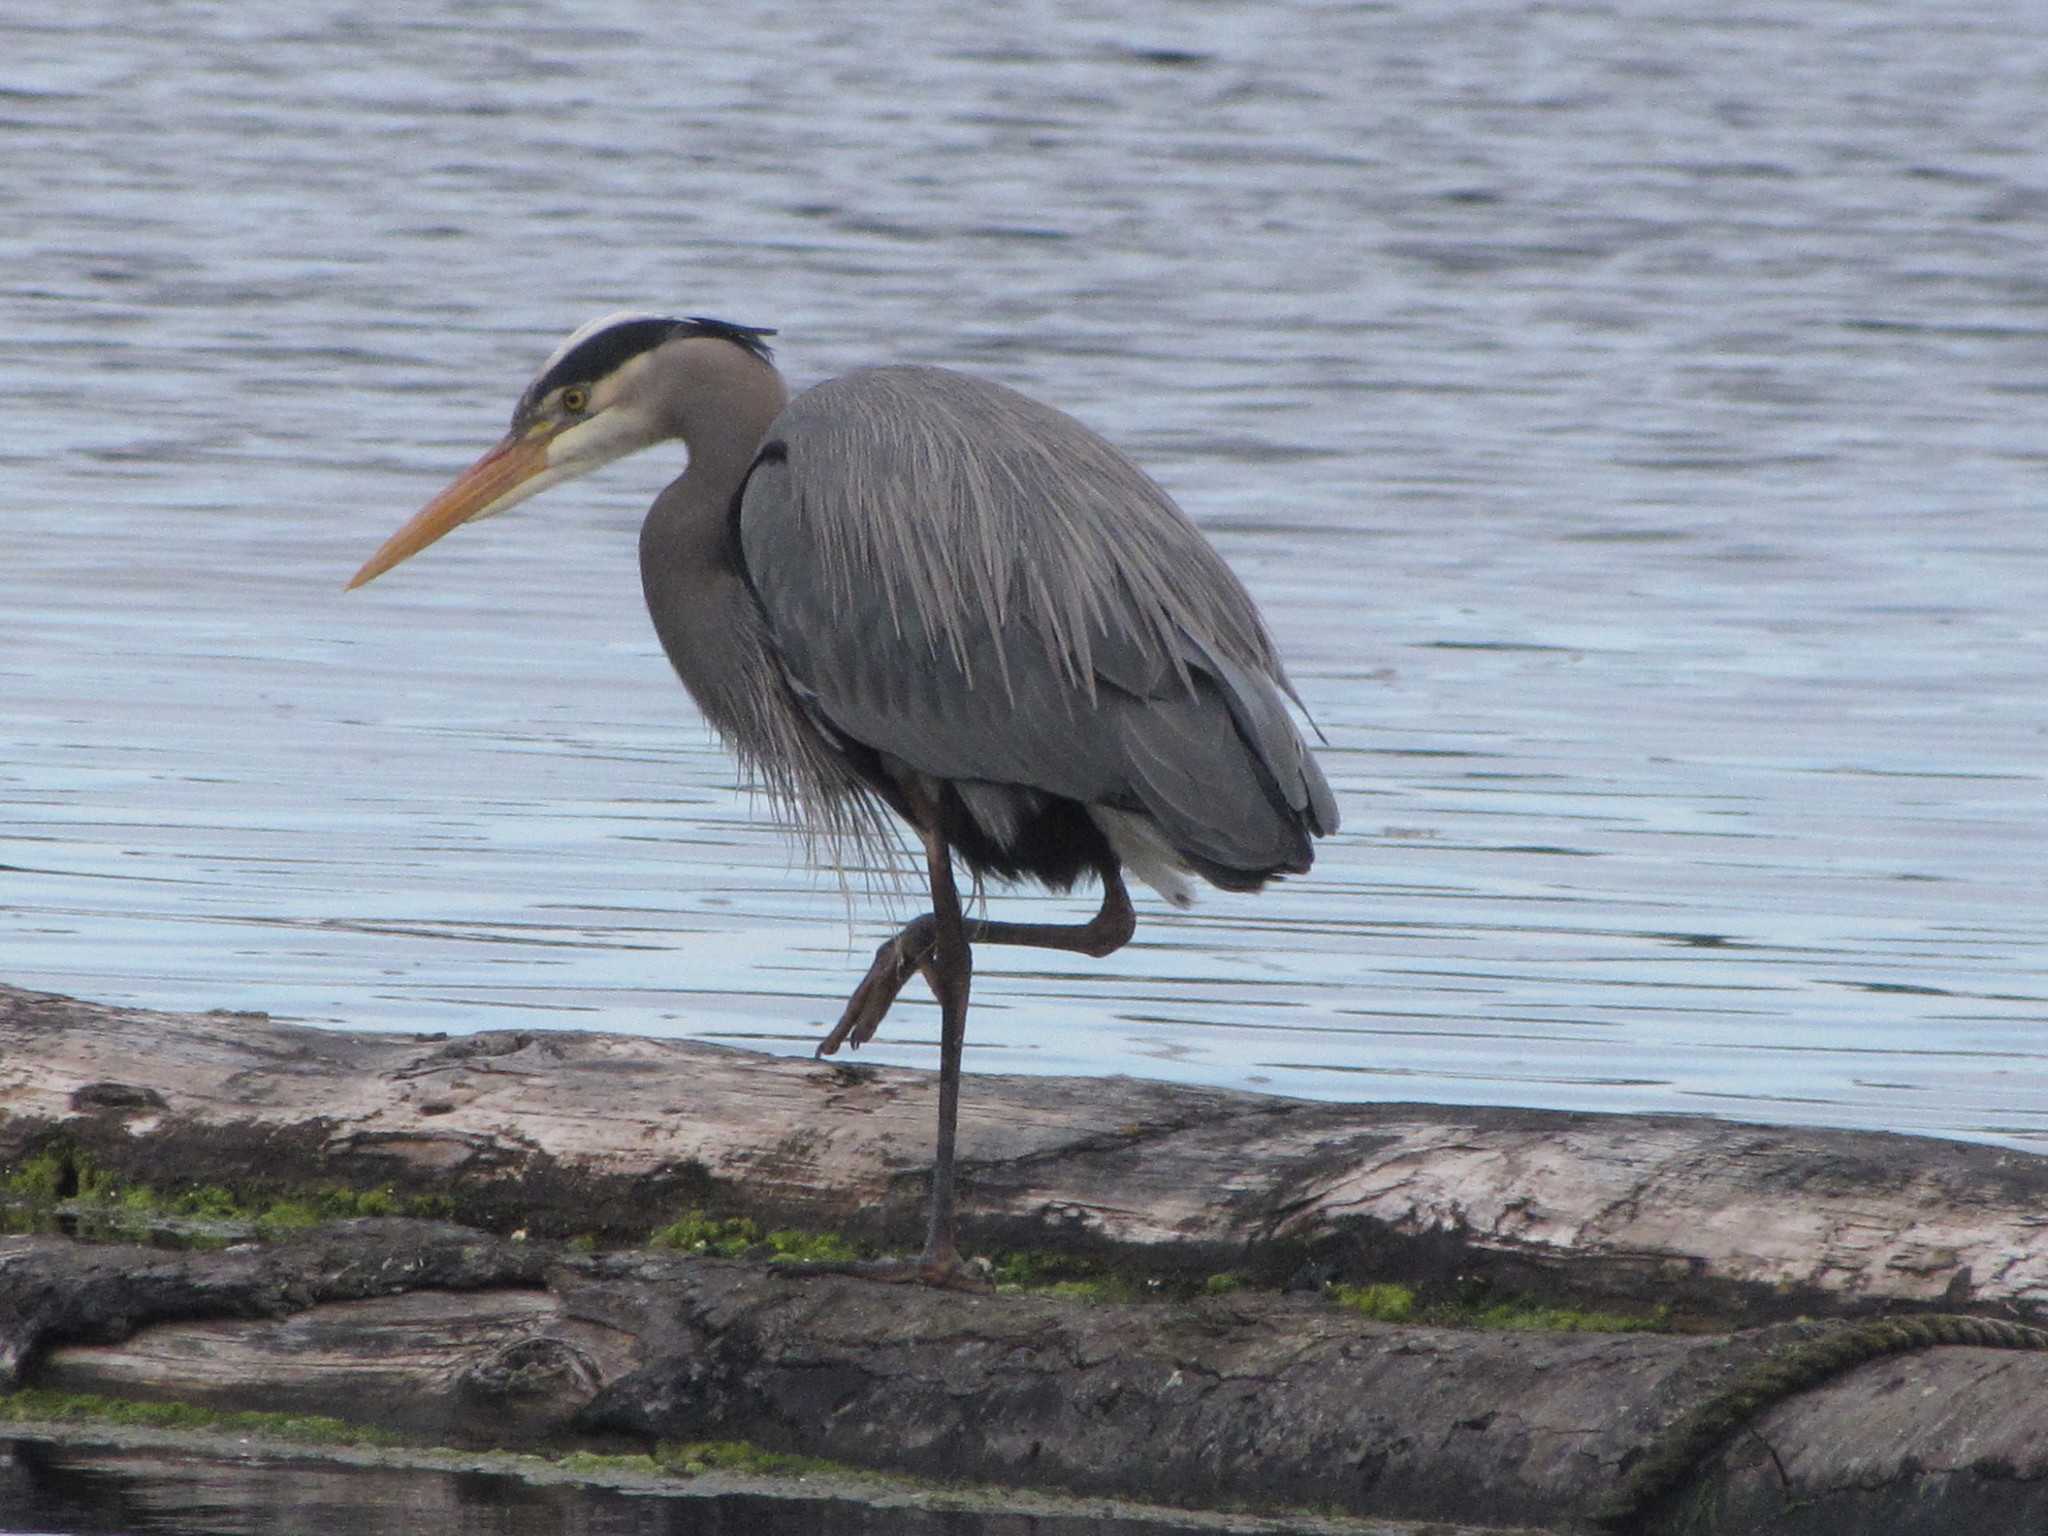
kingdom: Animalia
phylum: Chordata
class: Aves
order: Pelecaniformes
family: Ardeidae
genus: Ardea
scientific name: Ardea herodias
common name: Great blue heron
